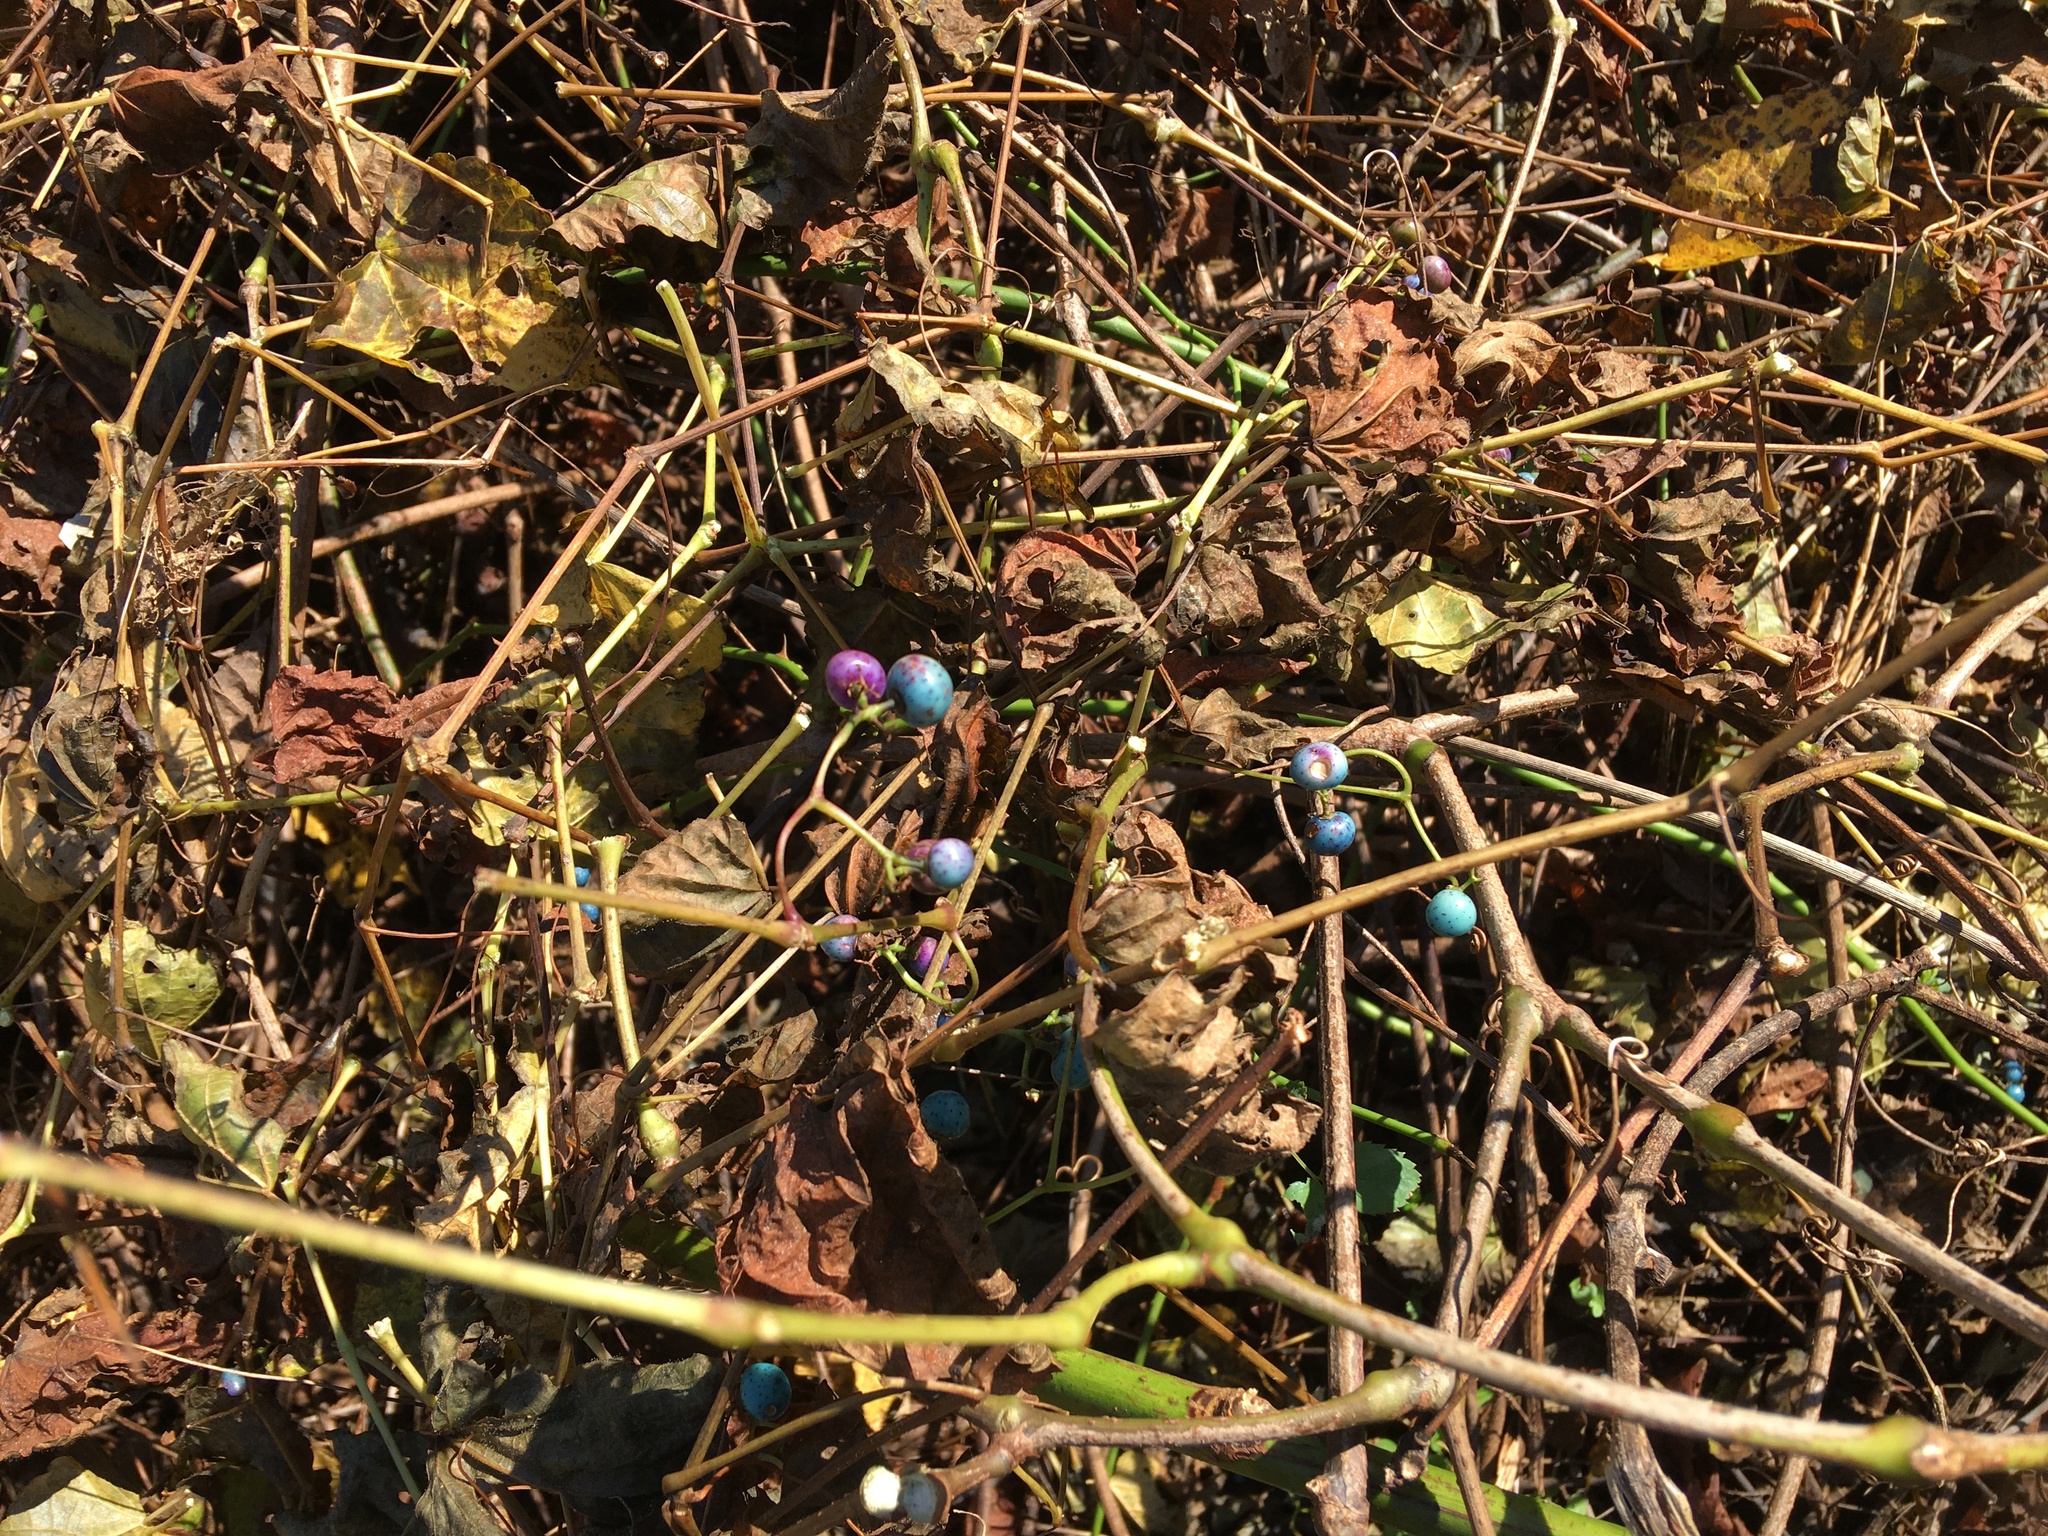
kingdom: Plantae
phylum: Tracheophyta
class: Magnoliopsida
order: Vitales
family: Vitaceae
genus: Ampelopsis
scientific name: Ampelopsis glandulosa
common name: Amur peppervine
